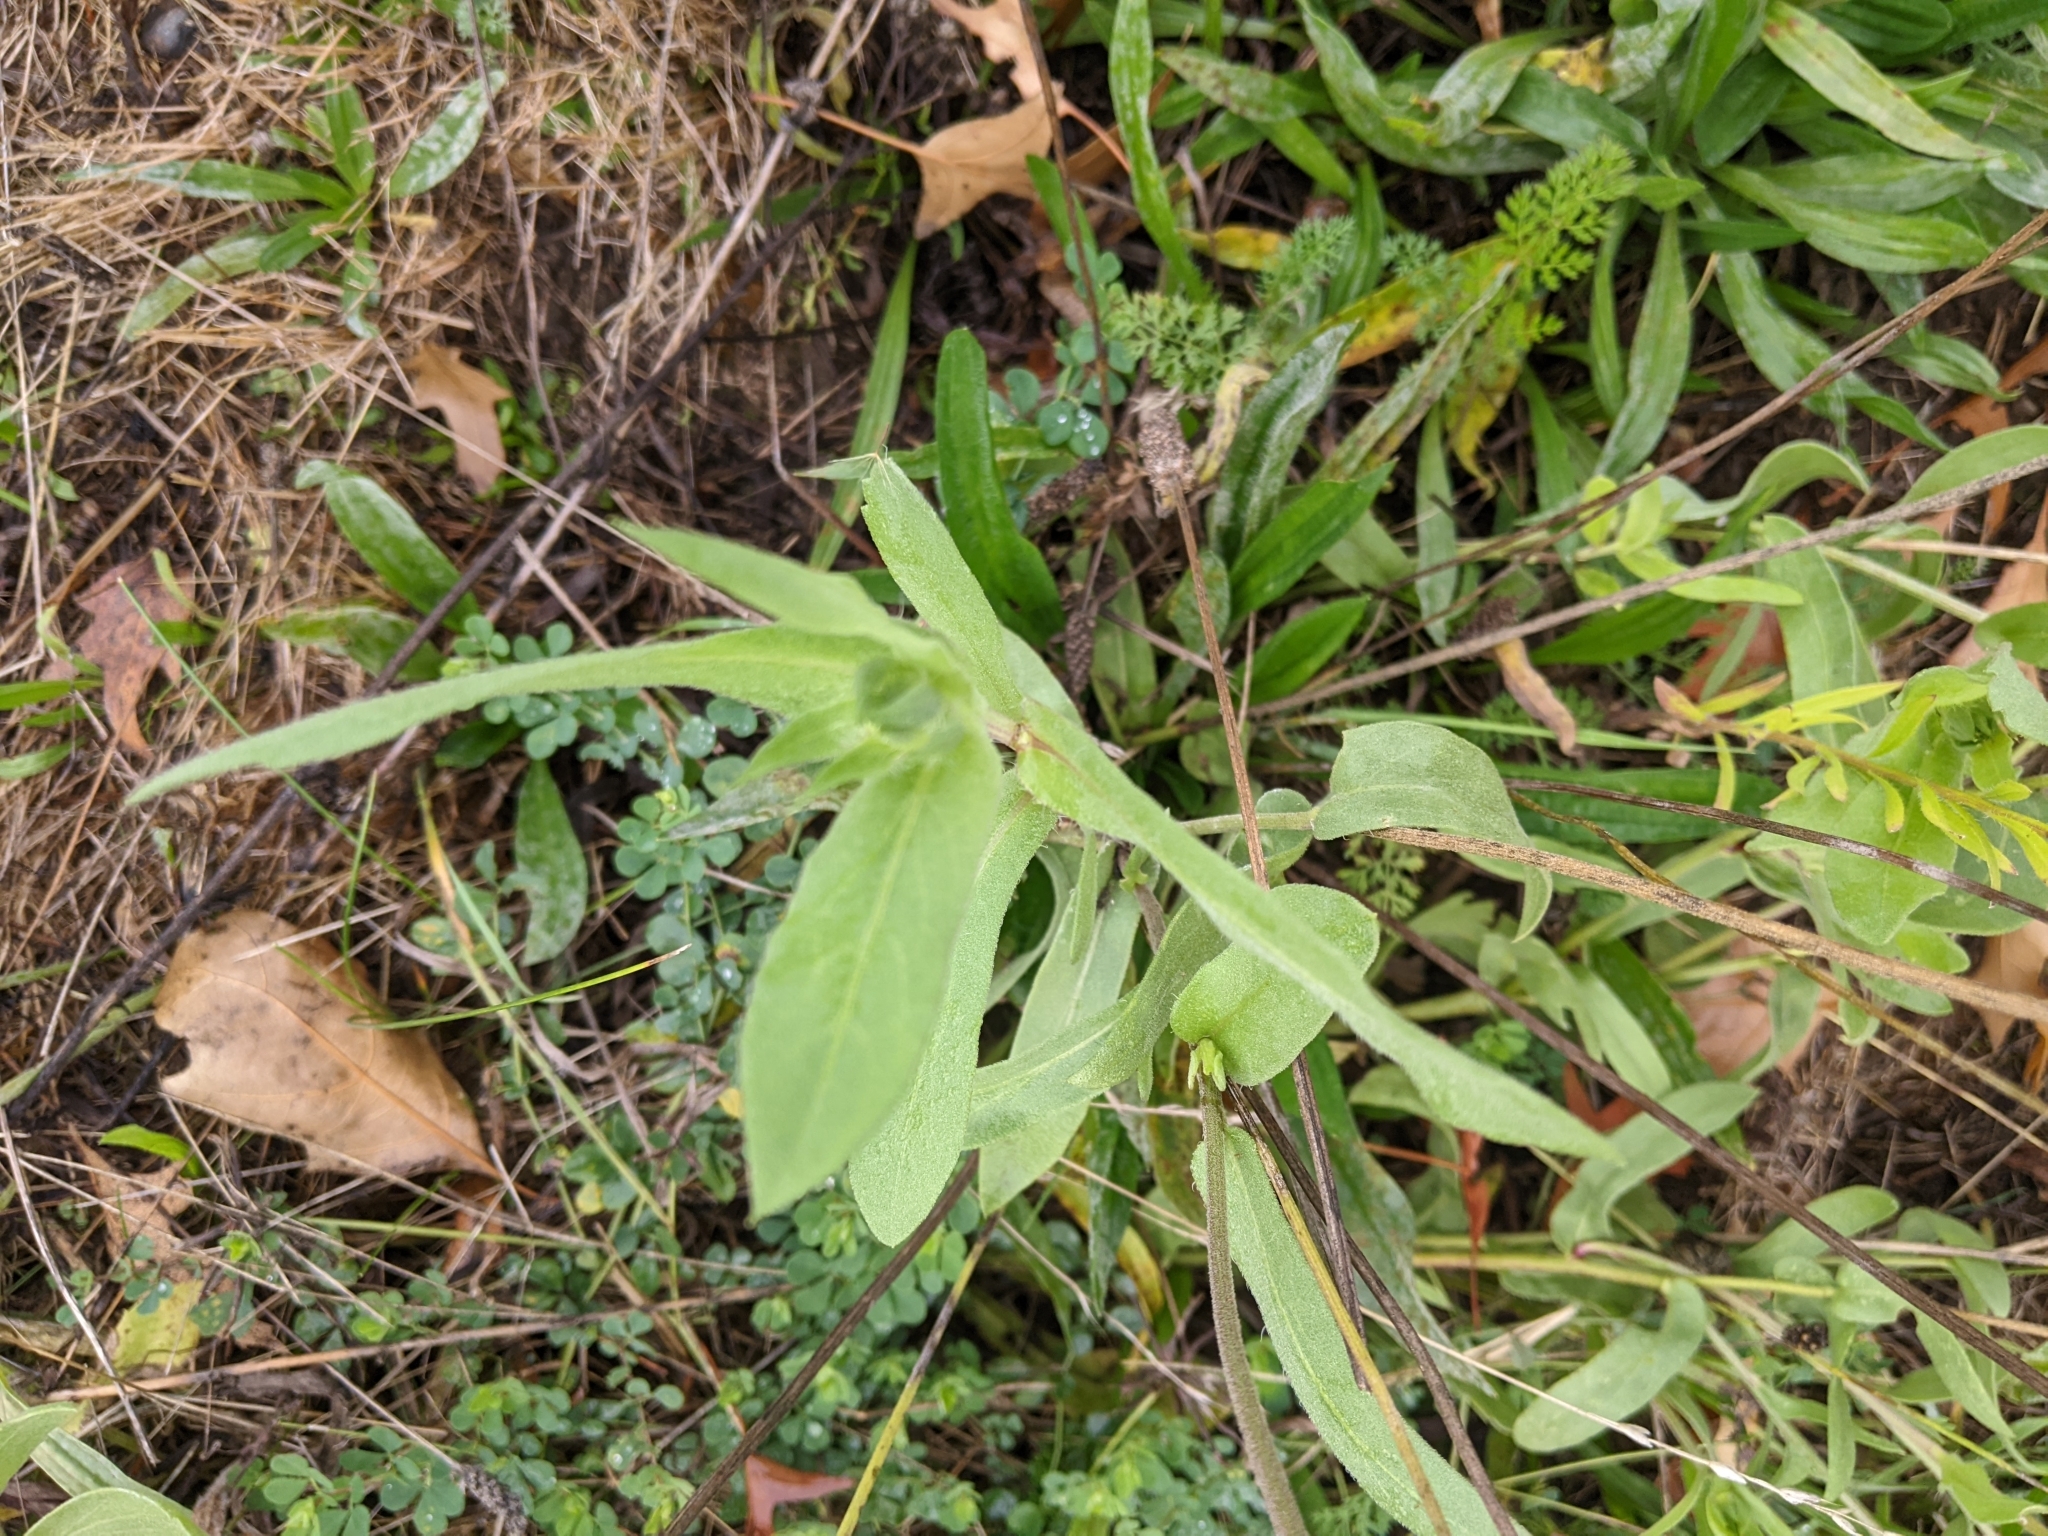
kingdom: Plantae
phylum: Tracheophyta
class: Magnoliopsida
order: Asterales
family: Asteraceae
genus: Gaillardia
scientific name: Gaillardia pulchella
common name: Firewheel
